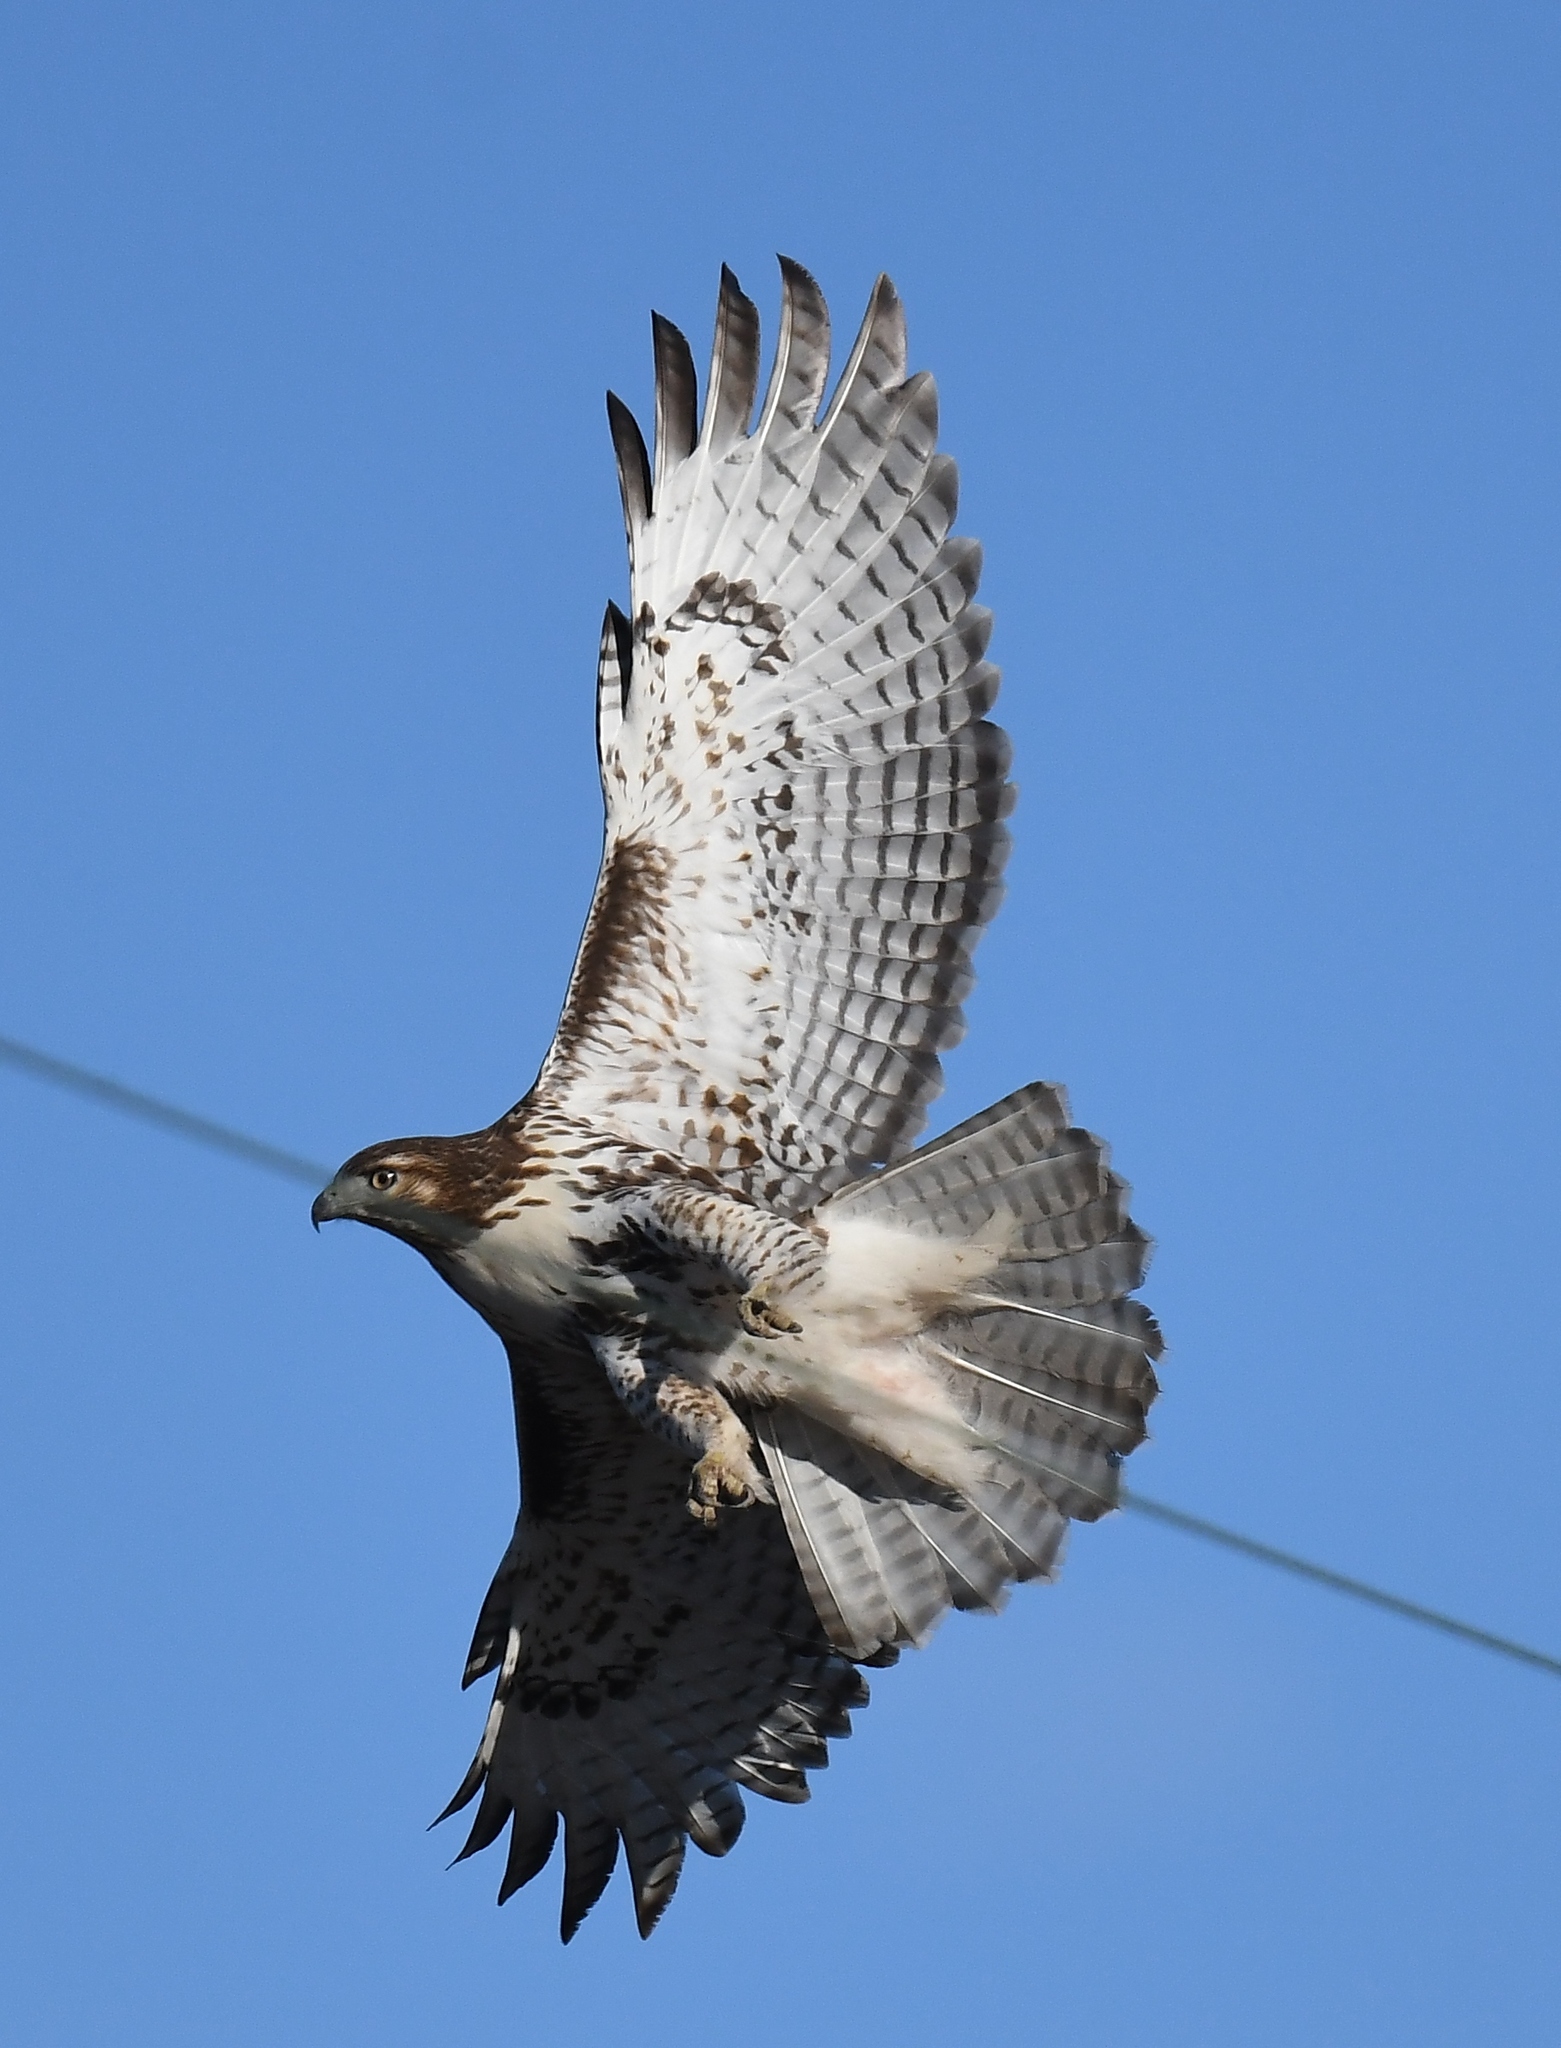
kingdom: Animalia
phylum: Chordata
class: Aves
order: Accipitriformes
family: Accipitridae
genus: Buteo
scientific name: Buteo jamaicensis
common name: Red-tailed hawk
